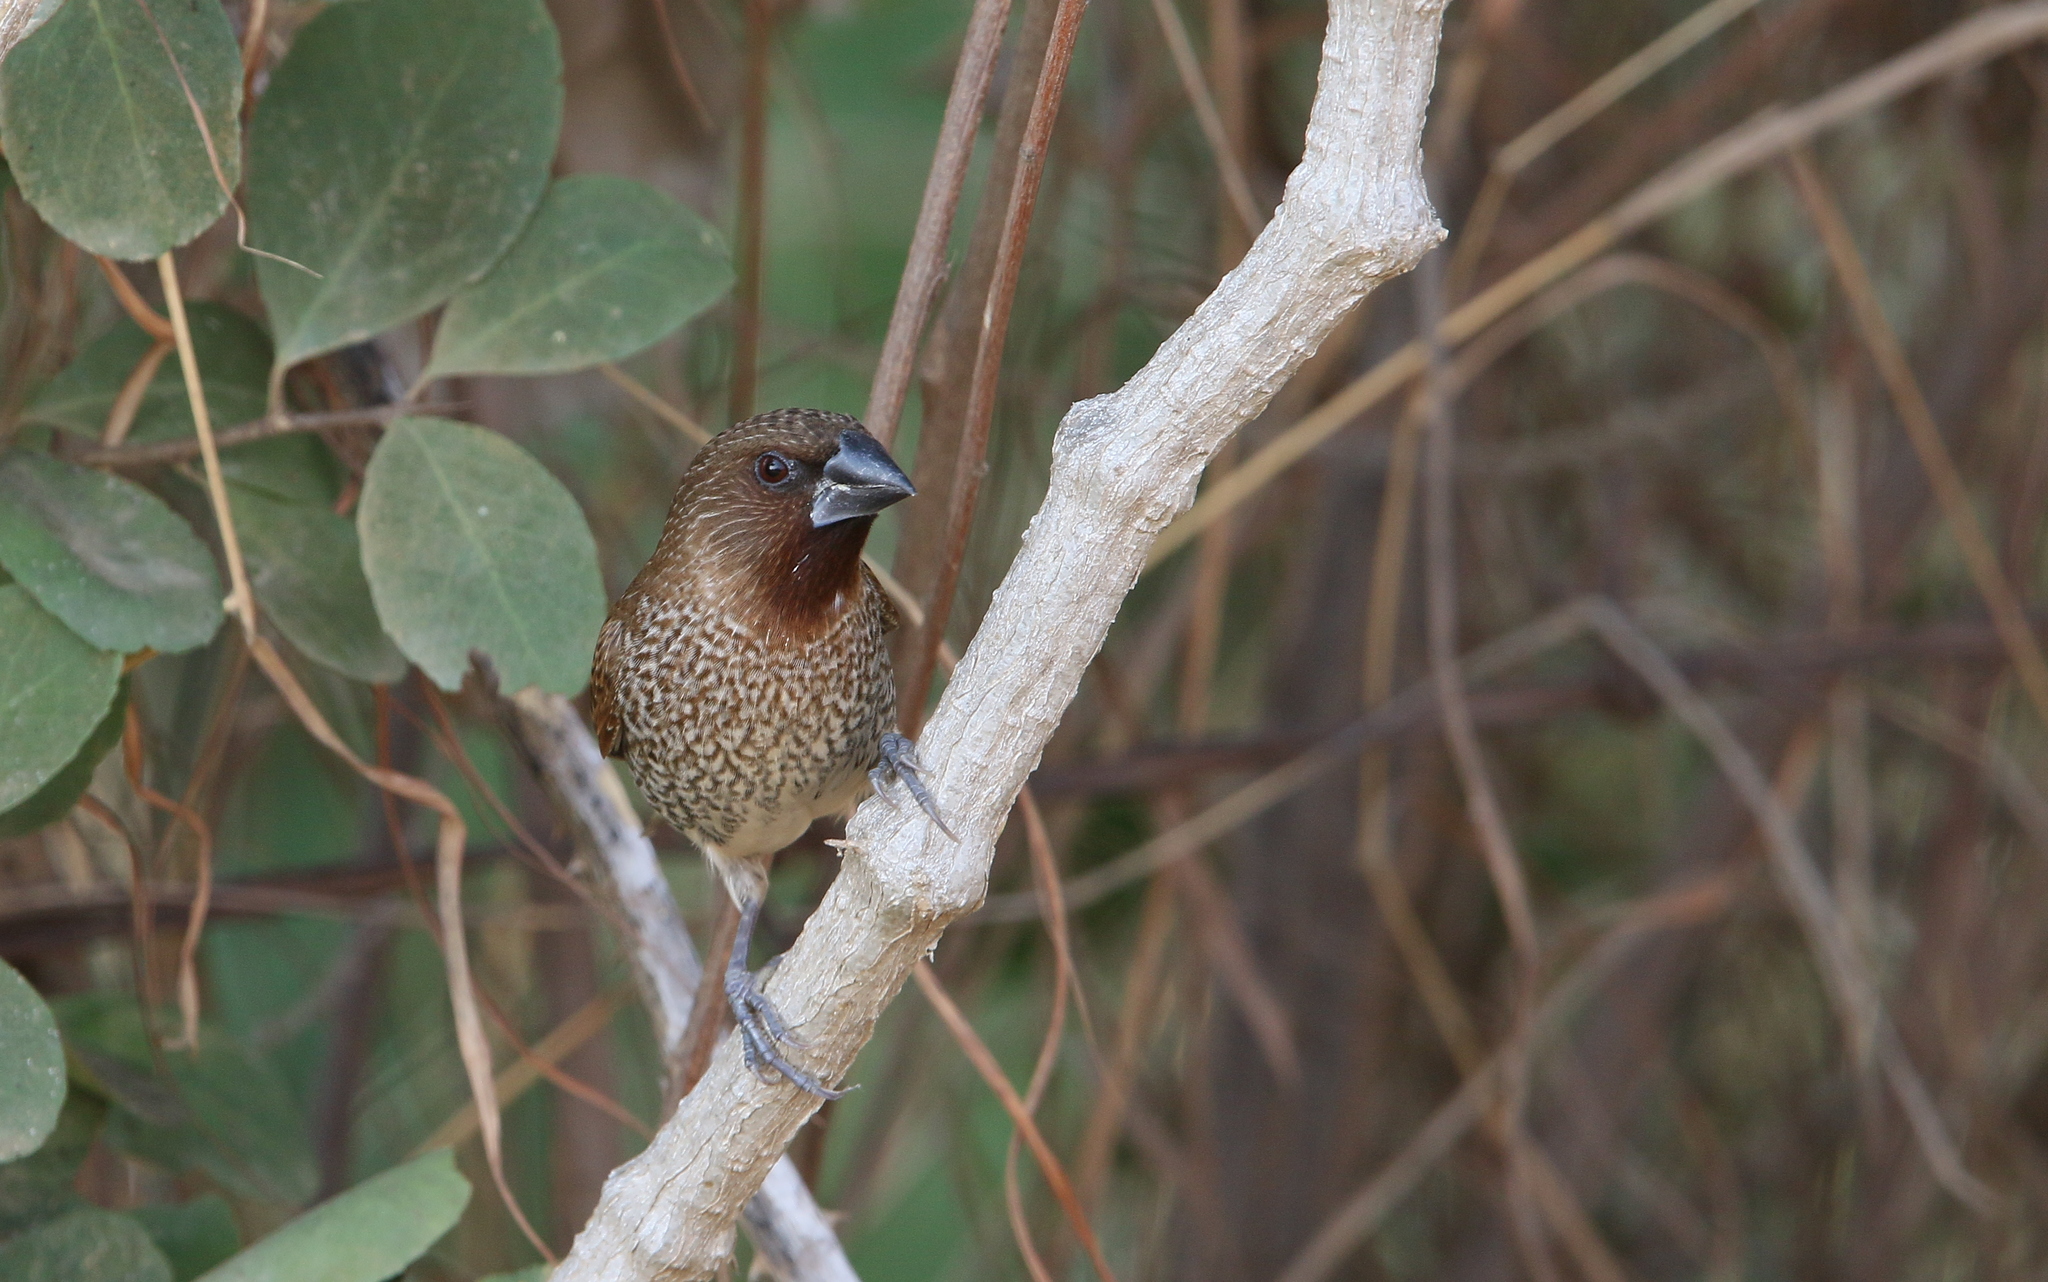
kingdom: Animalia
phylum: Chordata
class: Aves
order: Passeriformes
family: Estrildidae
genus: Lonchura
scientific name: Lonchura punctulata
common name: Scaly-breasted munia
